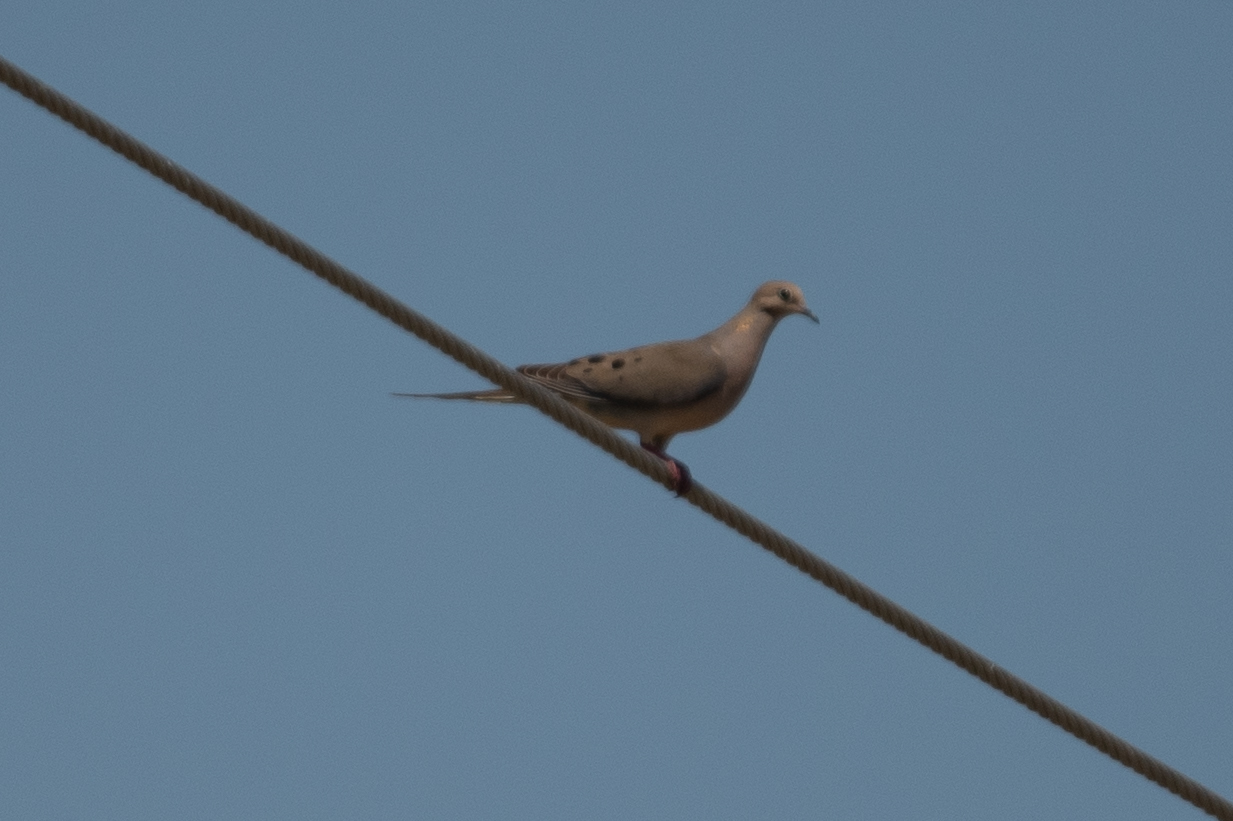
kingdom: Animalia
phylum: Chordata
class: Aves
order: Columbiformes
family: Columbidae
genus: Zenaida
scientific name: Zenaida macroura
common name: Mourning dove
